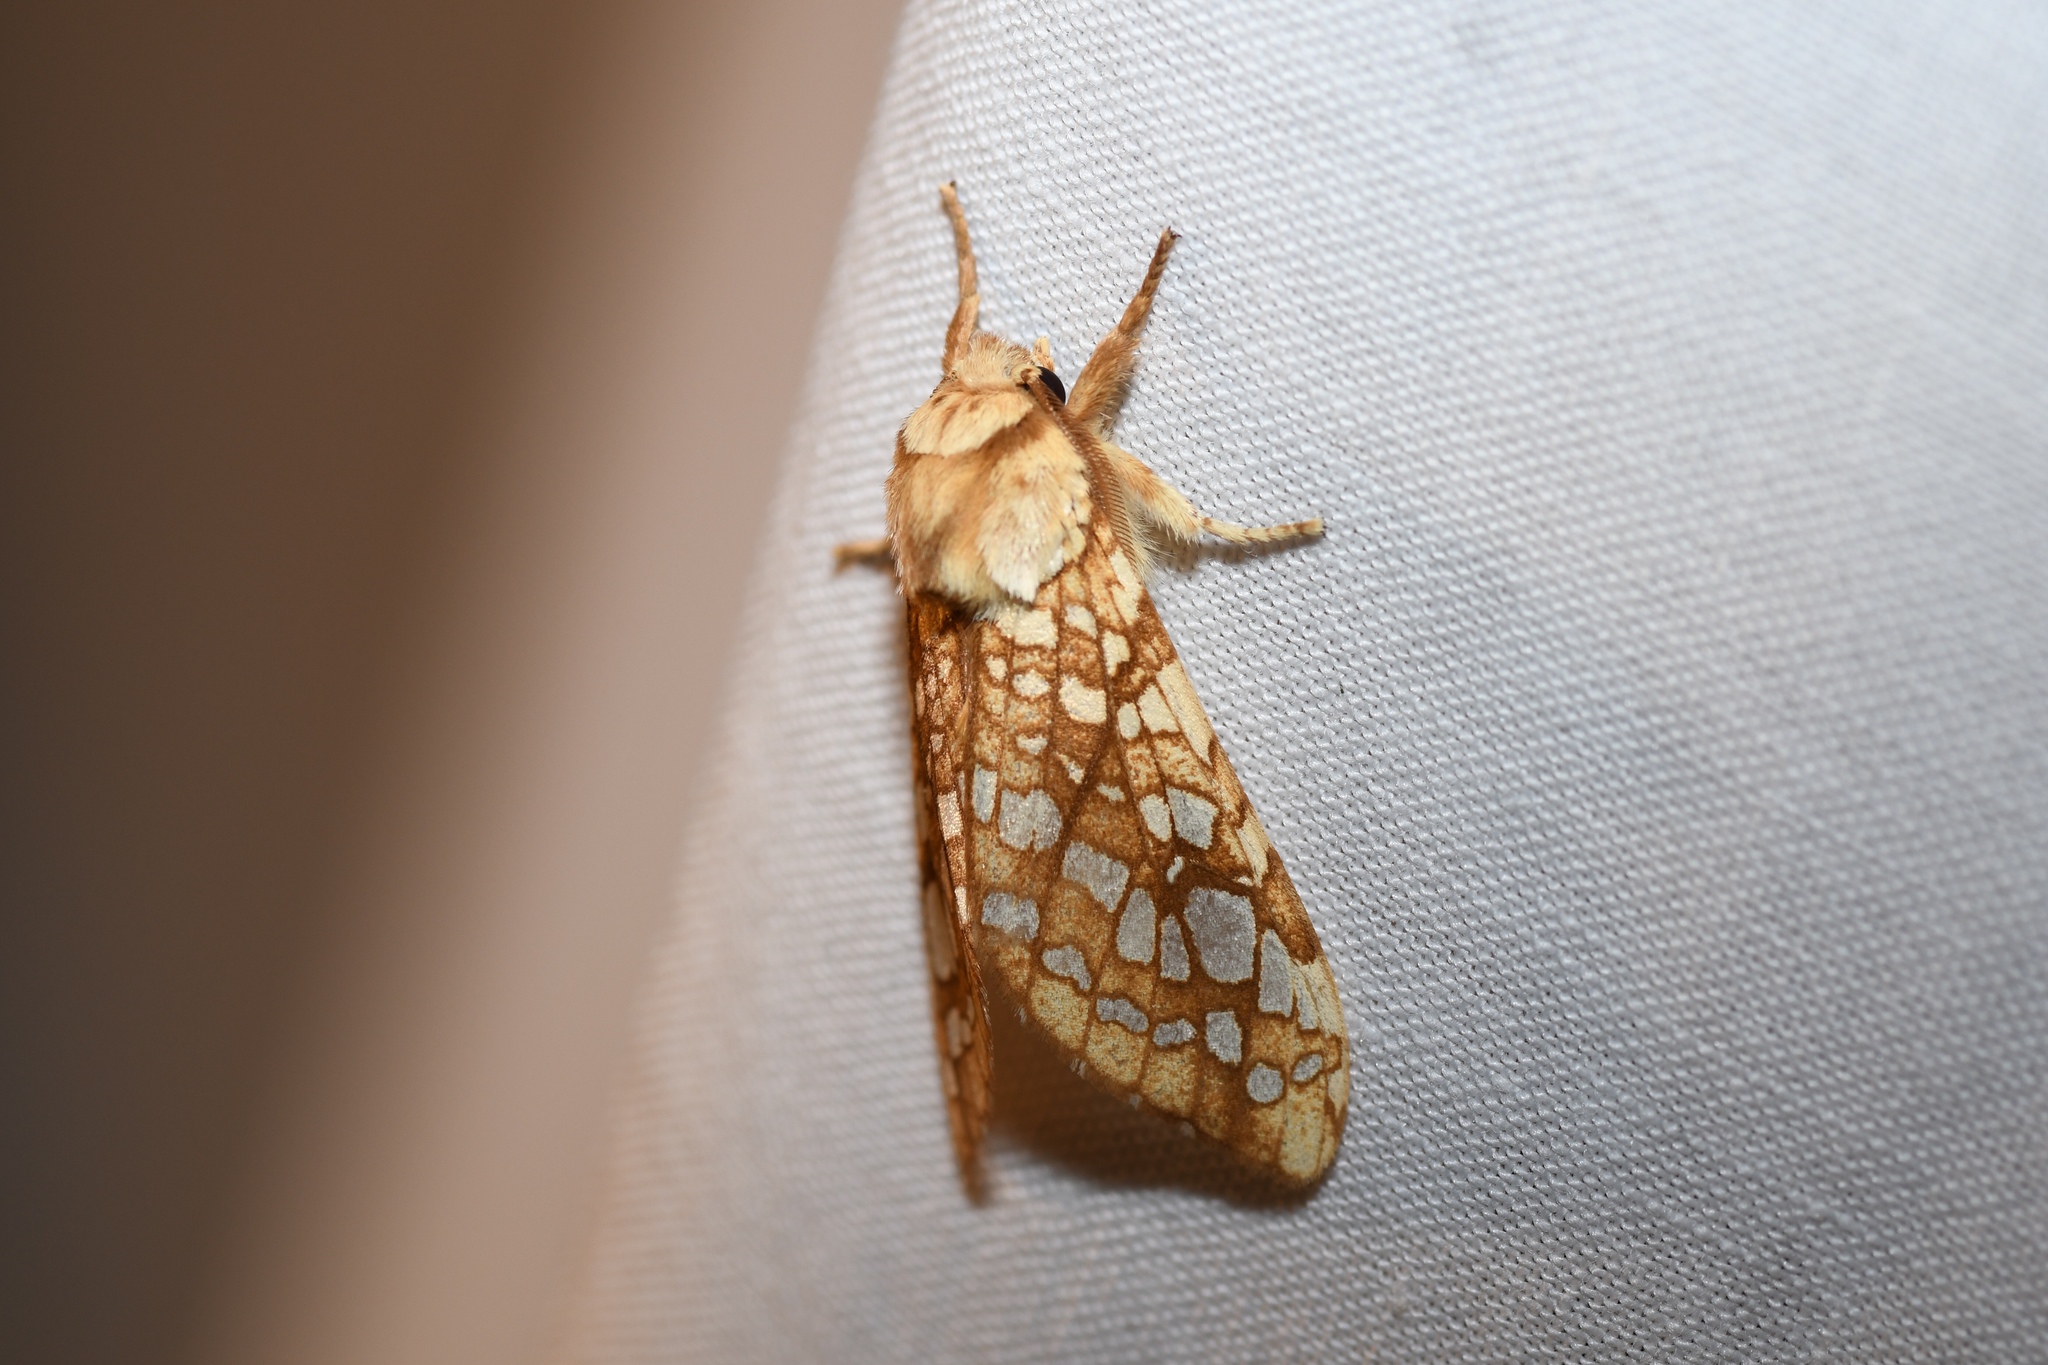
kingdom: Animalia
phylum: Arthropoda
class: Insecta
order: Lepidoptera
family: Erebidae
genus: Lophocampa
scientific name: Lophocampa caryae
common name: Hickory tussock moth
